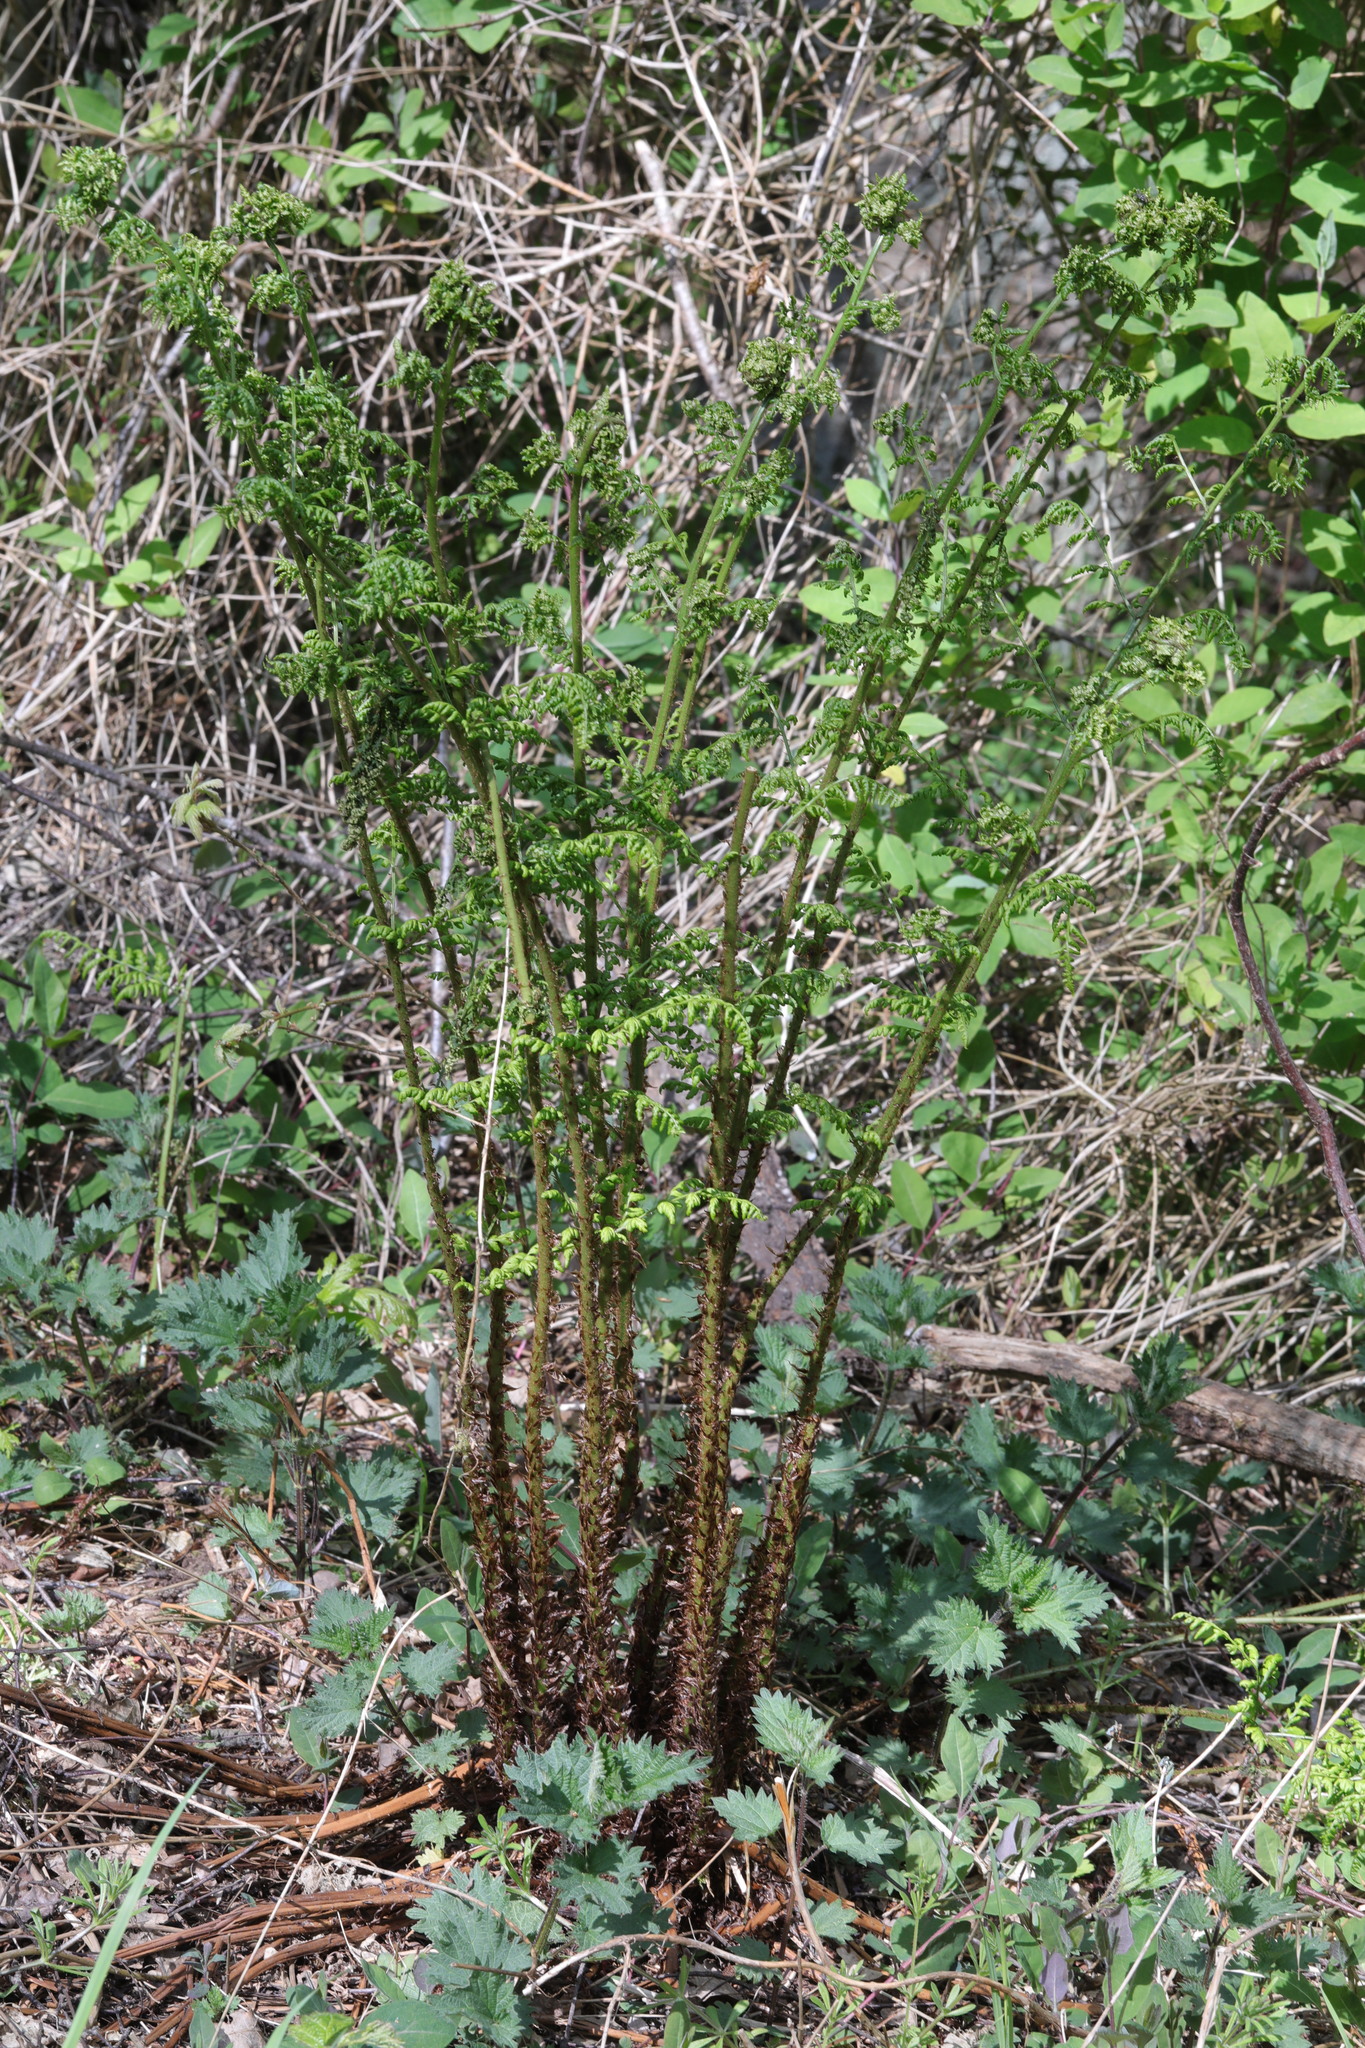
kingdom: Plantae
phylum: Tracheophyta
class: Polypodiopsida
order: Polypodiales
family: Dryopteridaceae
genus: Dryopteris
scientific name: Dryopteris dilatata
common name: Broad buckler-fern
